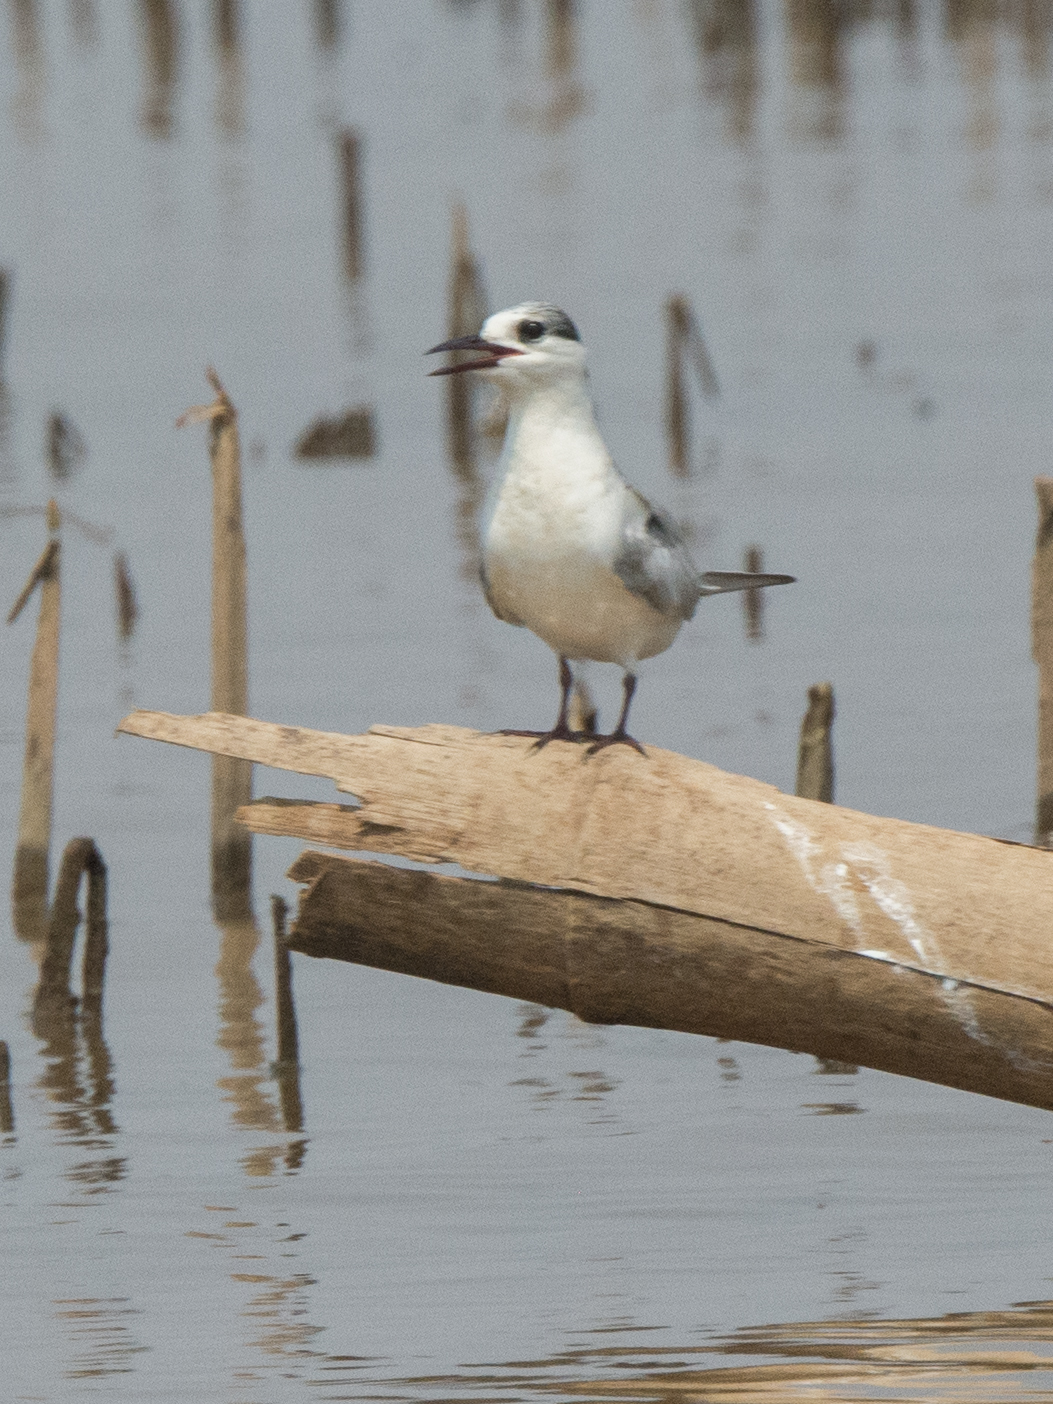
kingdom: Animalia
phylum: Chordata
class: Aves
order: Charadriiformes
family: Laridae
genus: Chlidonias
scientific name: Chlidonias hybrida
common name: Whiskered tern
